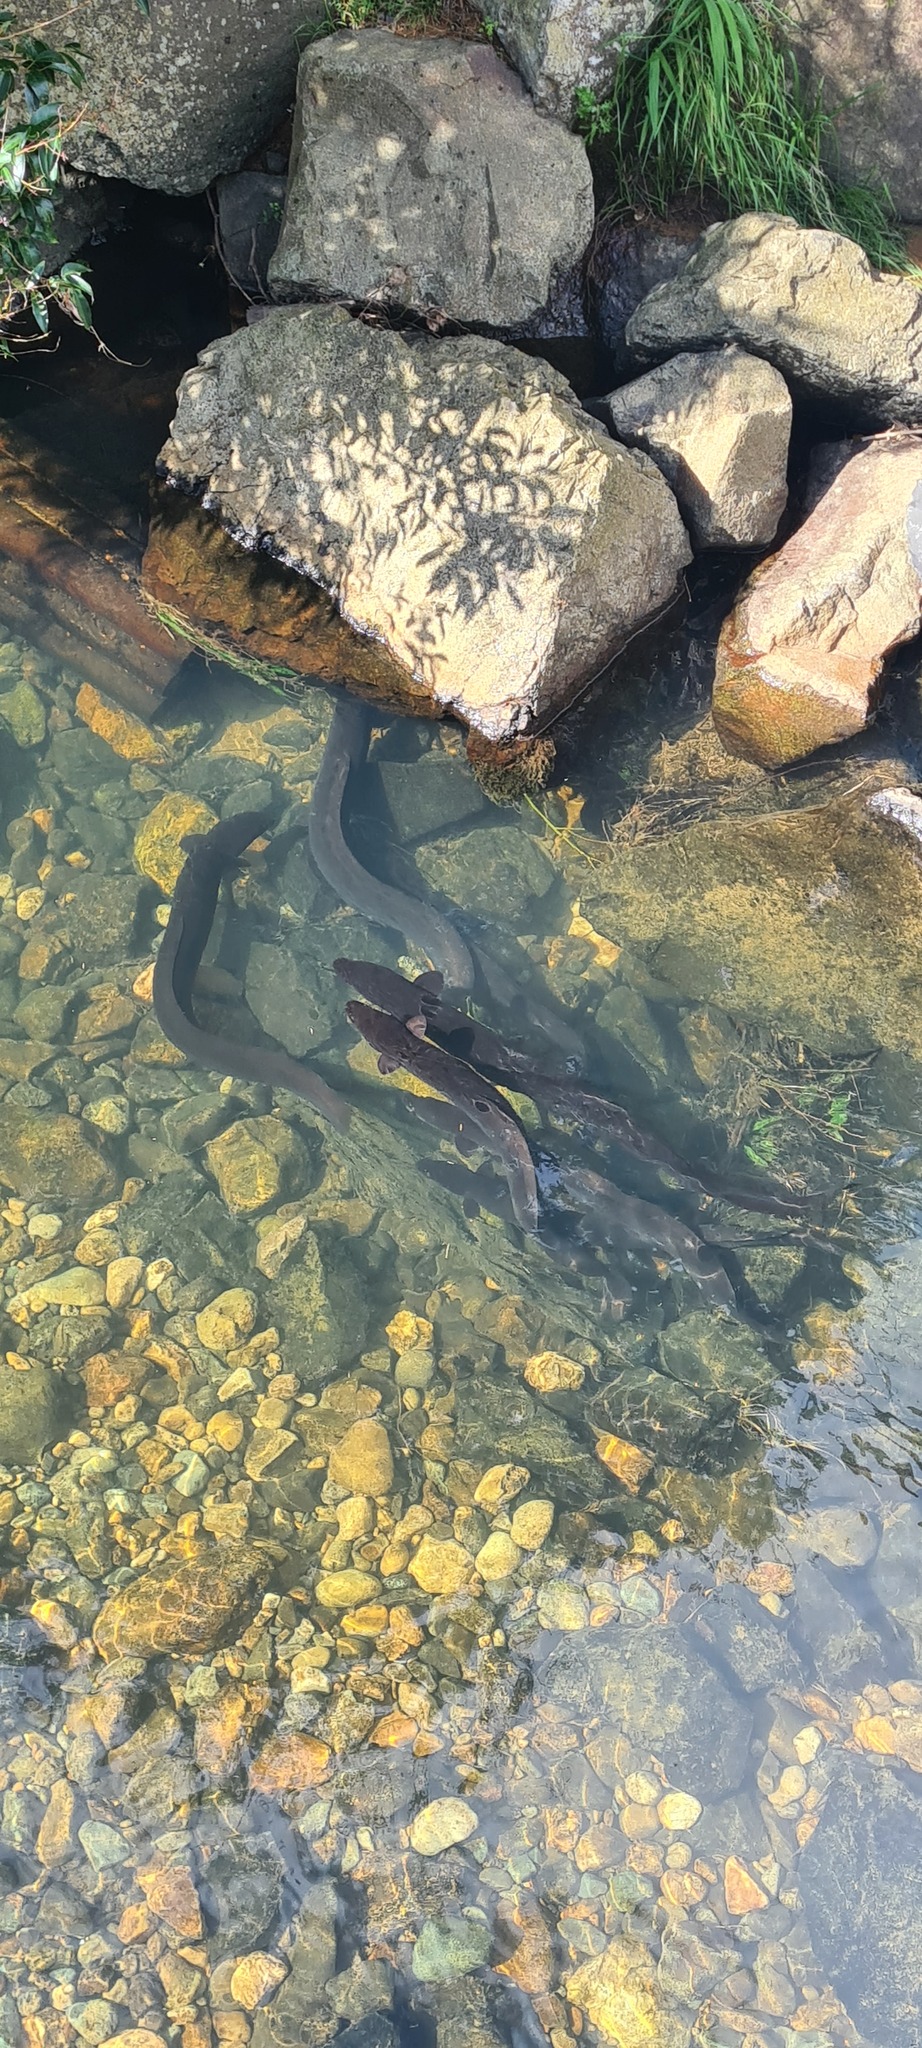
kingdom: Animalia
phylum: Chordata
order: Anguilliformes
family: Anguillidae
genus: Anguilla
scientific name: Anguilla dieffenbachii
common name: New zealand longfin eel
